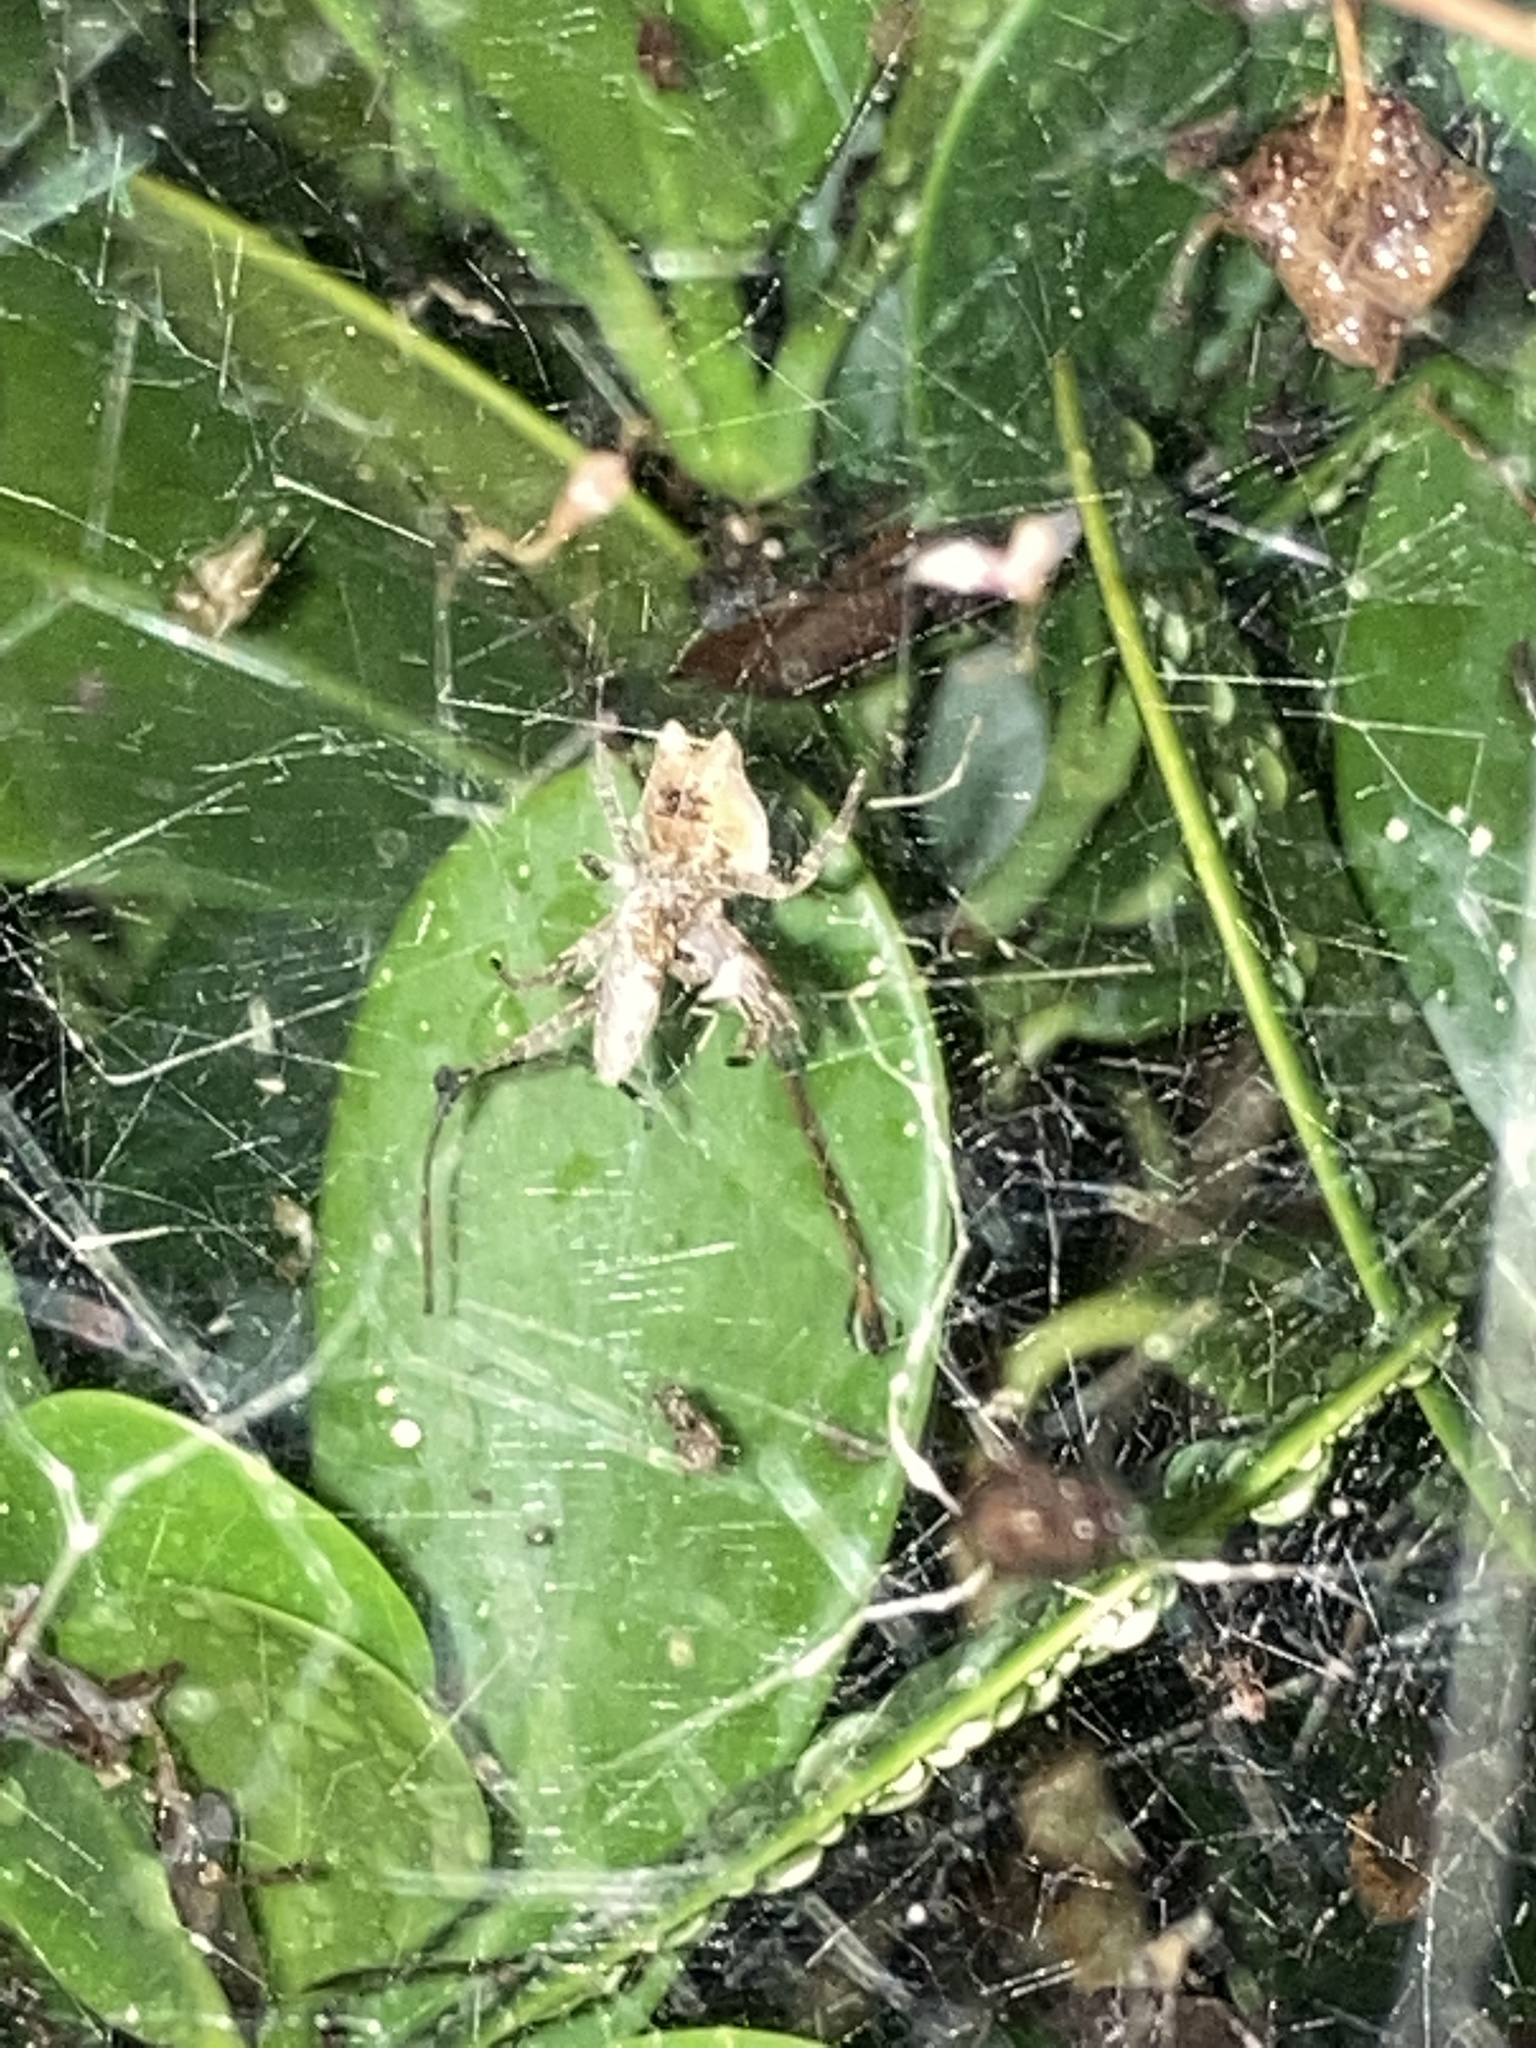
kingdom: Animalia
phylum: Arthropoda
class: Arachnida
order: Araneae
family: Araneidae
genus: Cyrtophora
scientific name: Cyrtophora citricola
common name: Orb weavers
